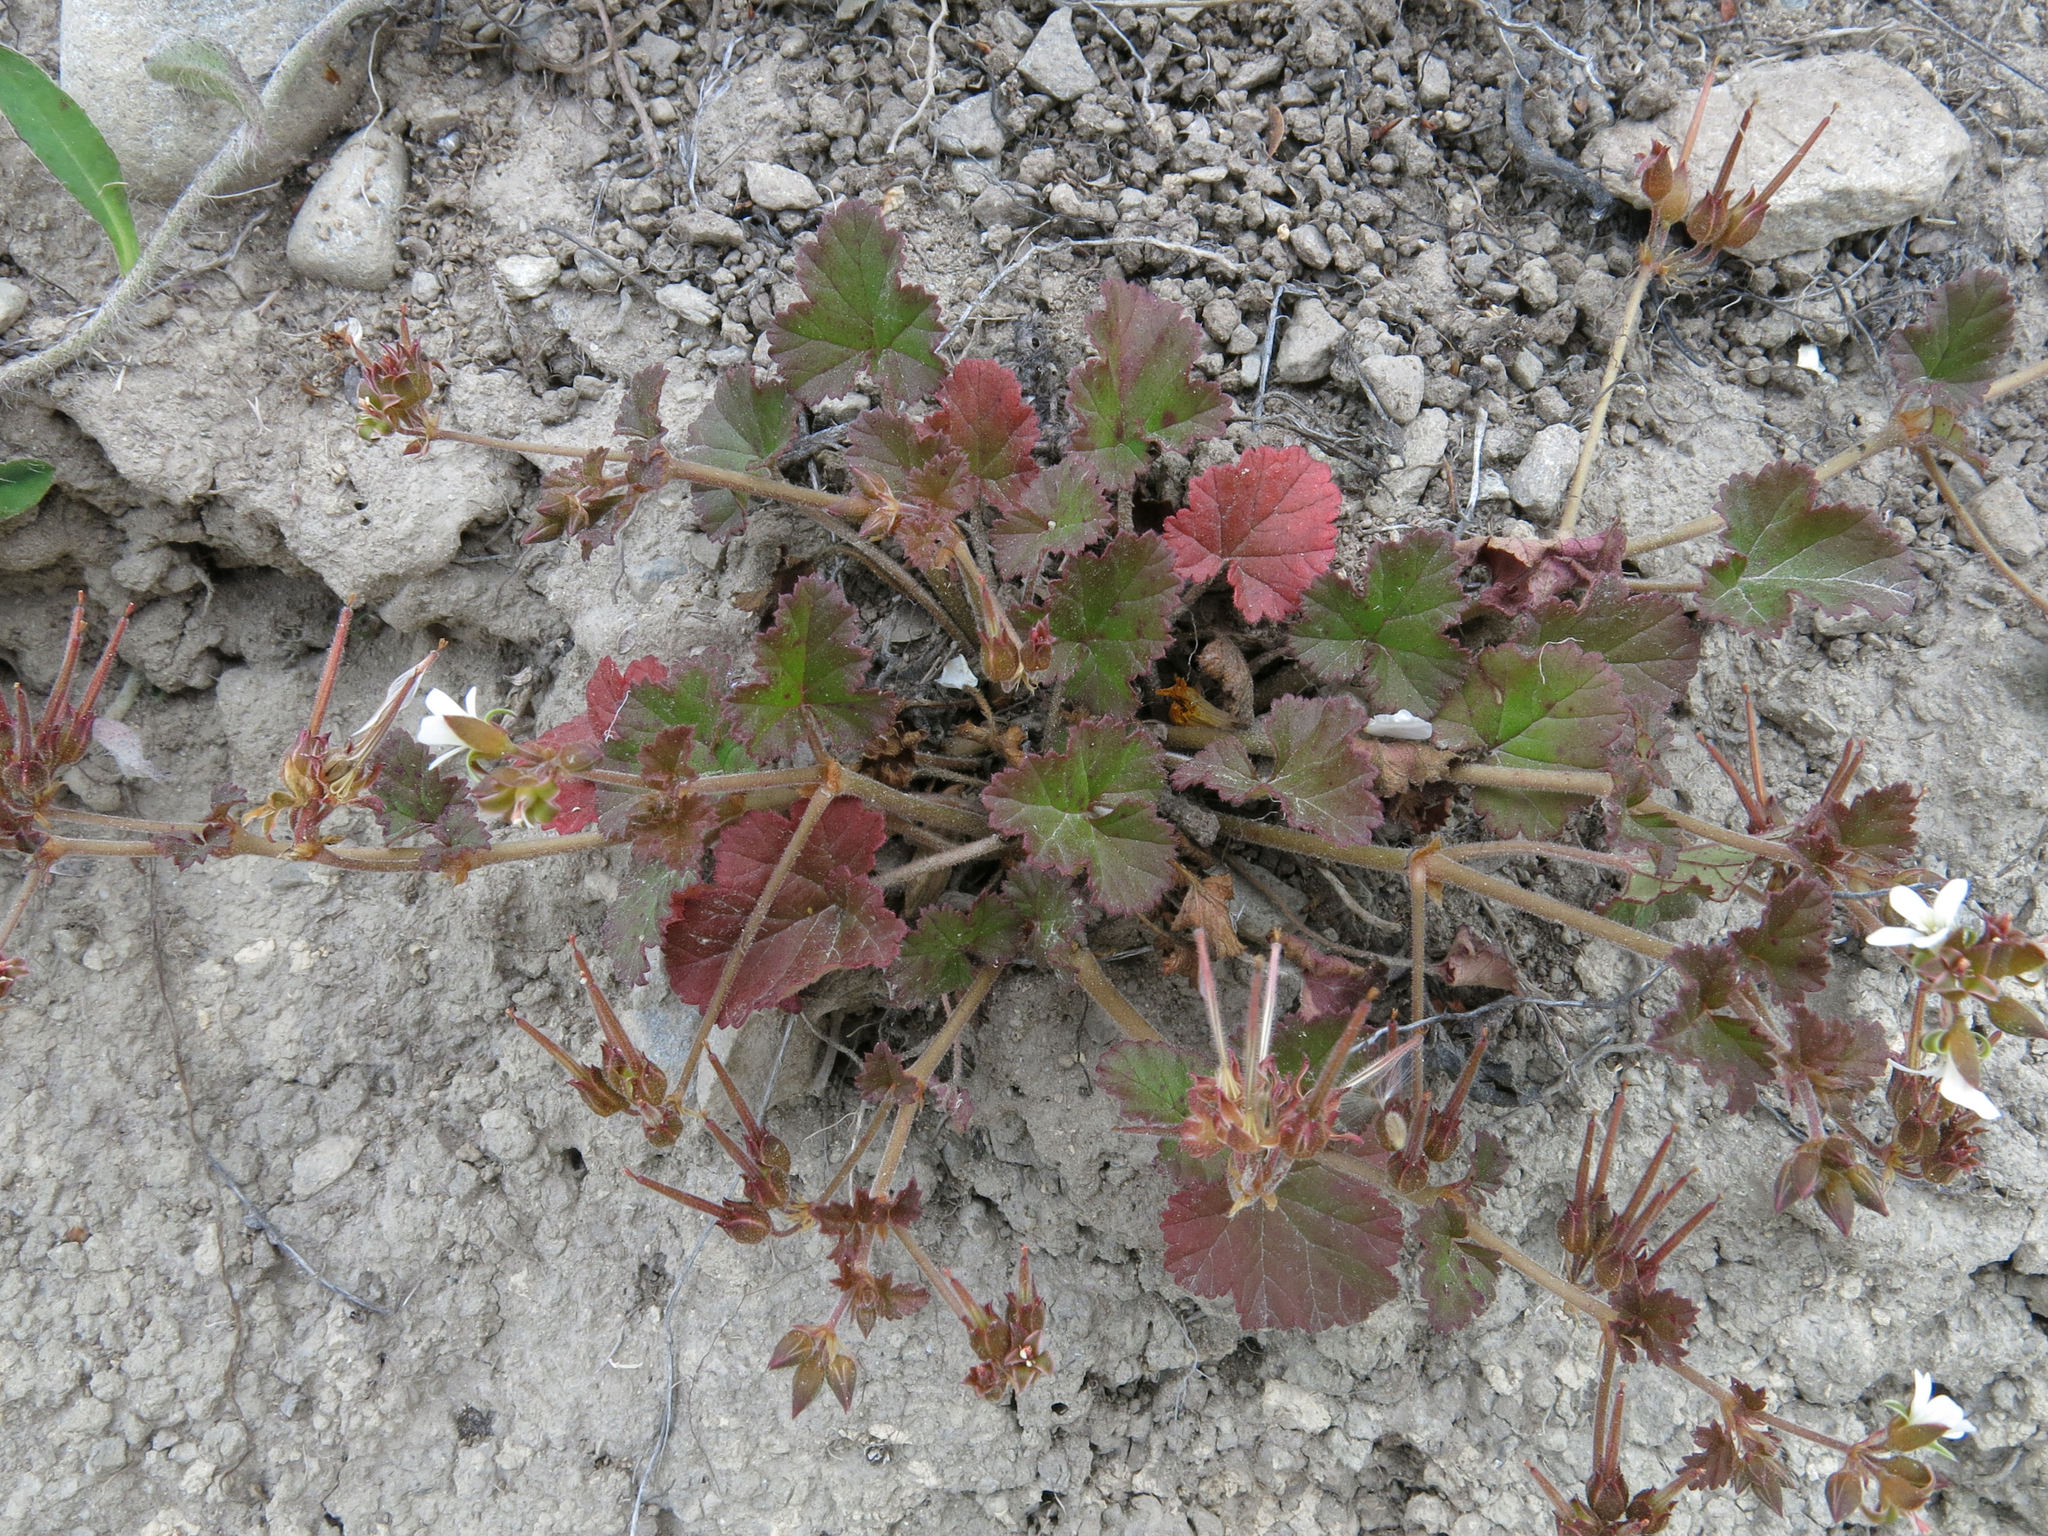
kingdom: Plantae
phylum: Tracheophyta
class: Magnoliopsida
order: Geraniales
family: Geraniaceae
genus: Pelargonium
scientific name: Pelargonium inodorum
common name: Kopata geranium
